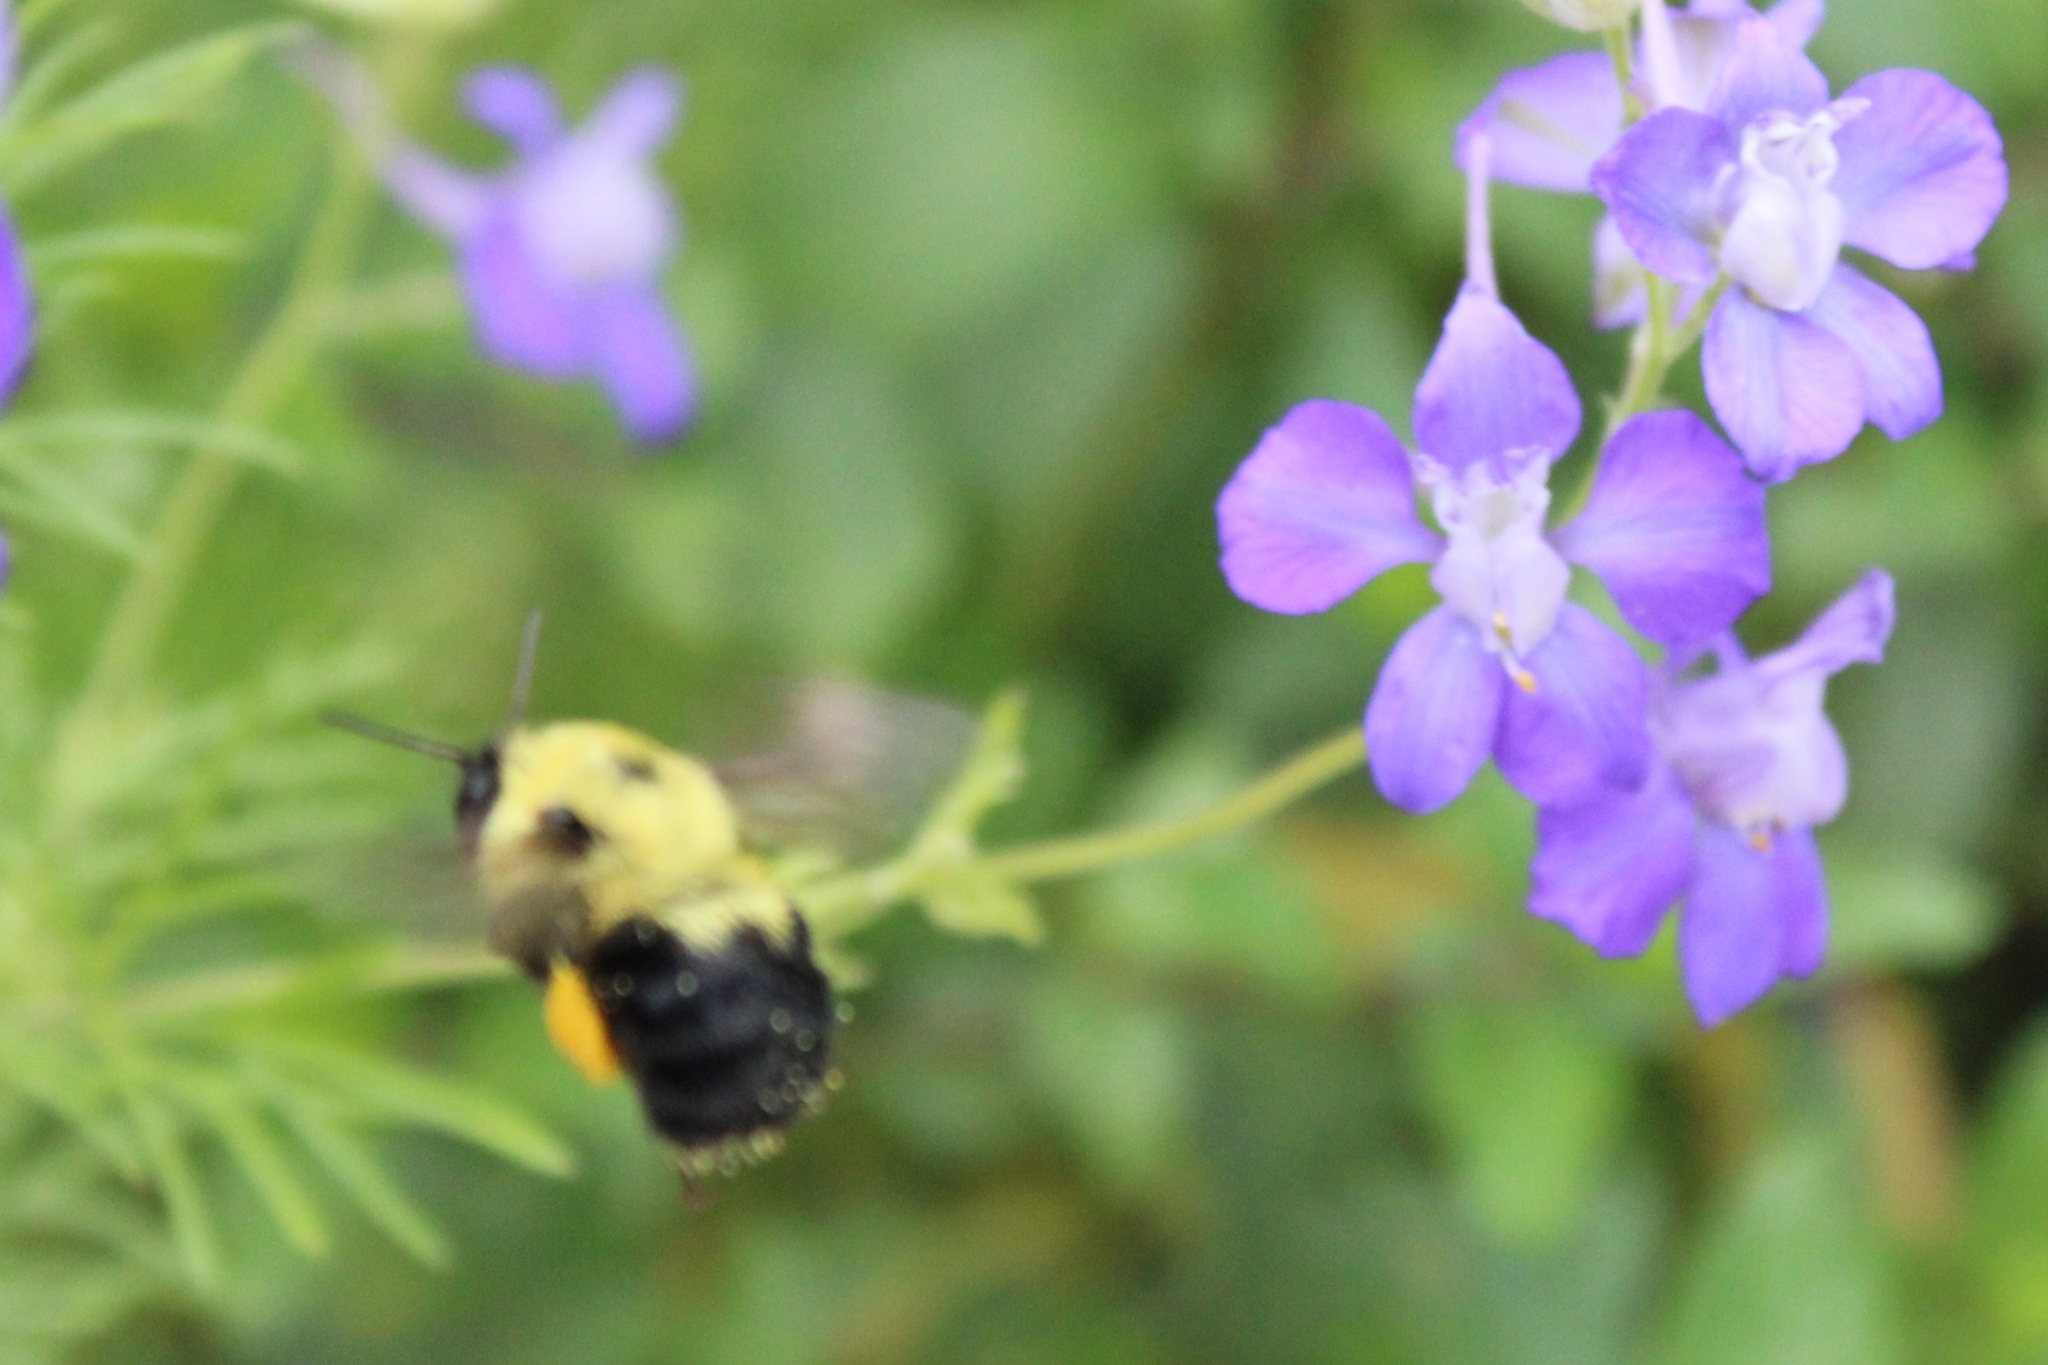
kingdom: Animalia
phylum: Arthropoda
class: Insecta
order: Hymenoptera
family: Apidae
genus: Bombus
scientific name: Bombus bimaculatus
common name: Two-spotted bumble bee
